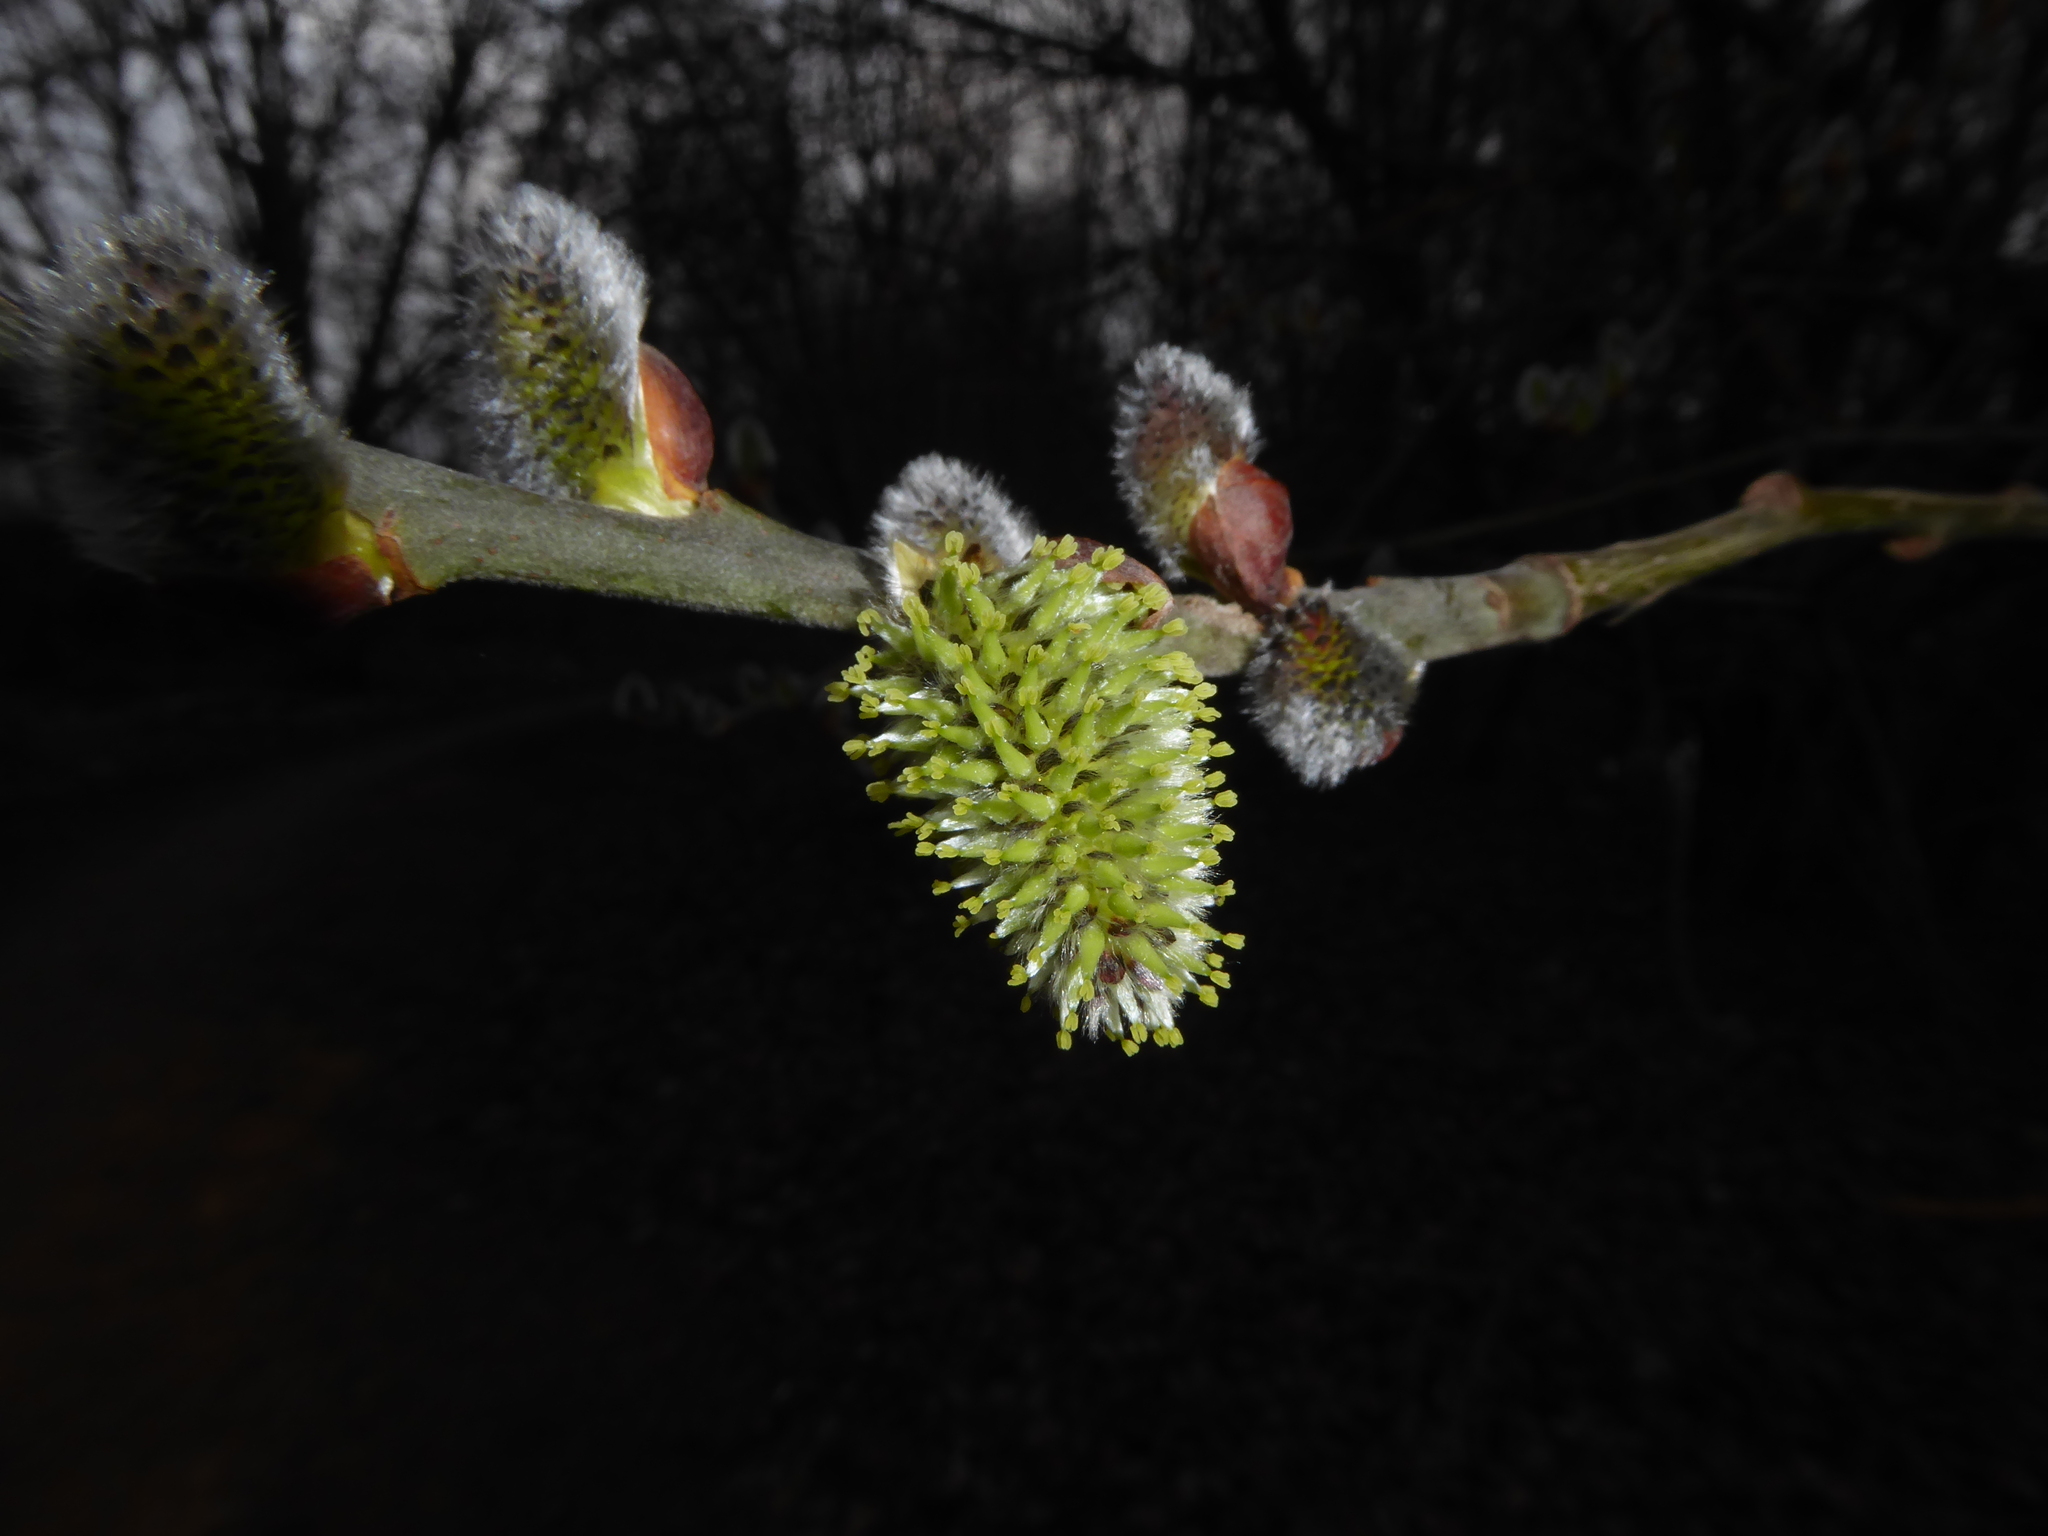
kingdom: Plantae
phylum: Tracheophyta
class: Magnoliopsida
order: Malpighiales
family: Salicaceae
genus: Salix
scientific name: Salix caprea
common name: Goat willow
